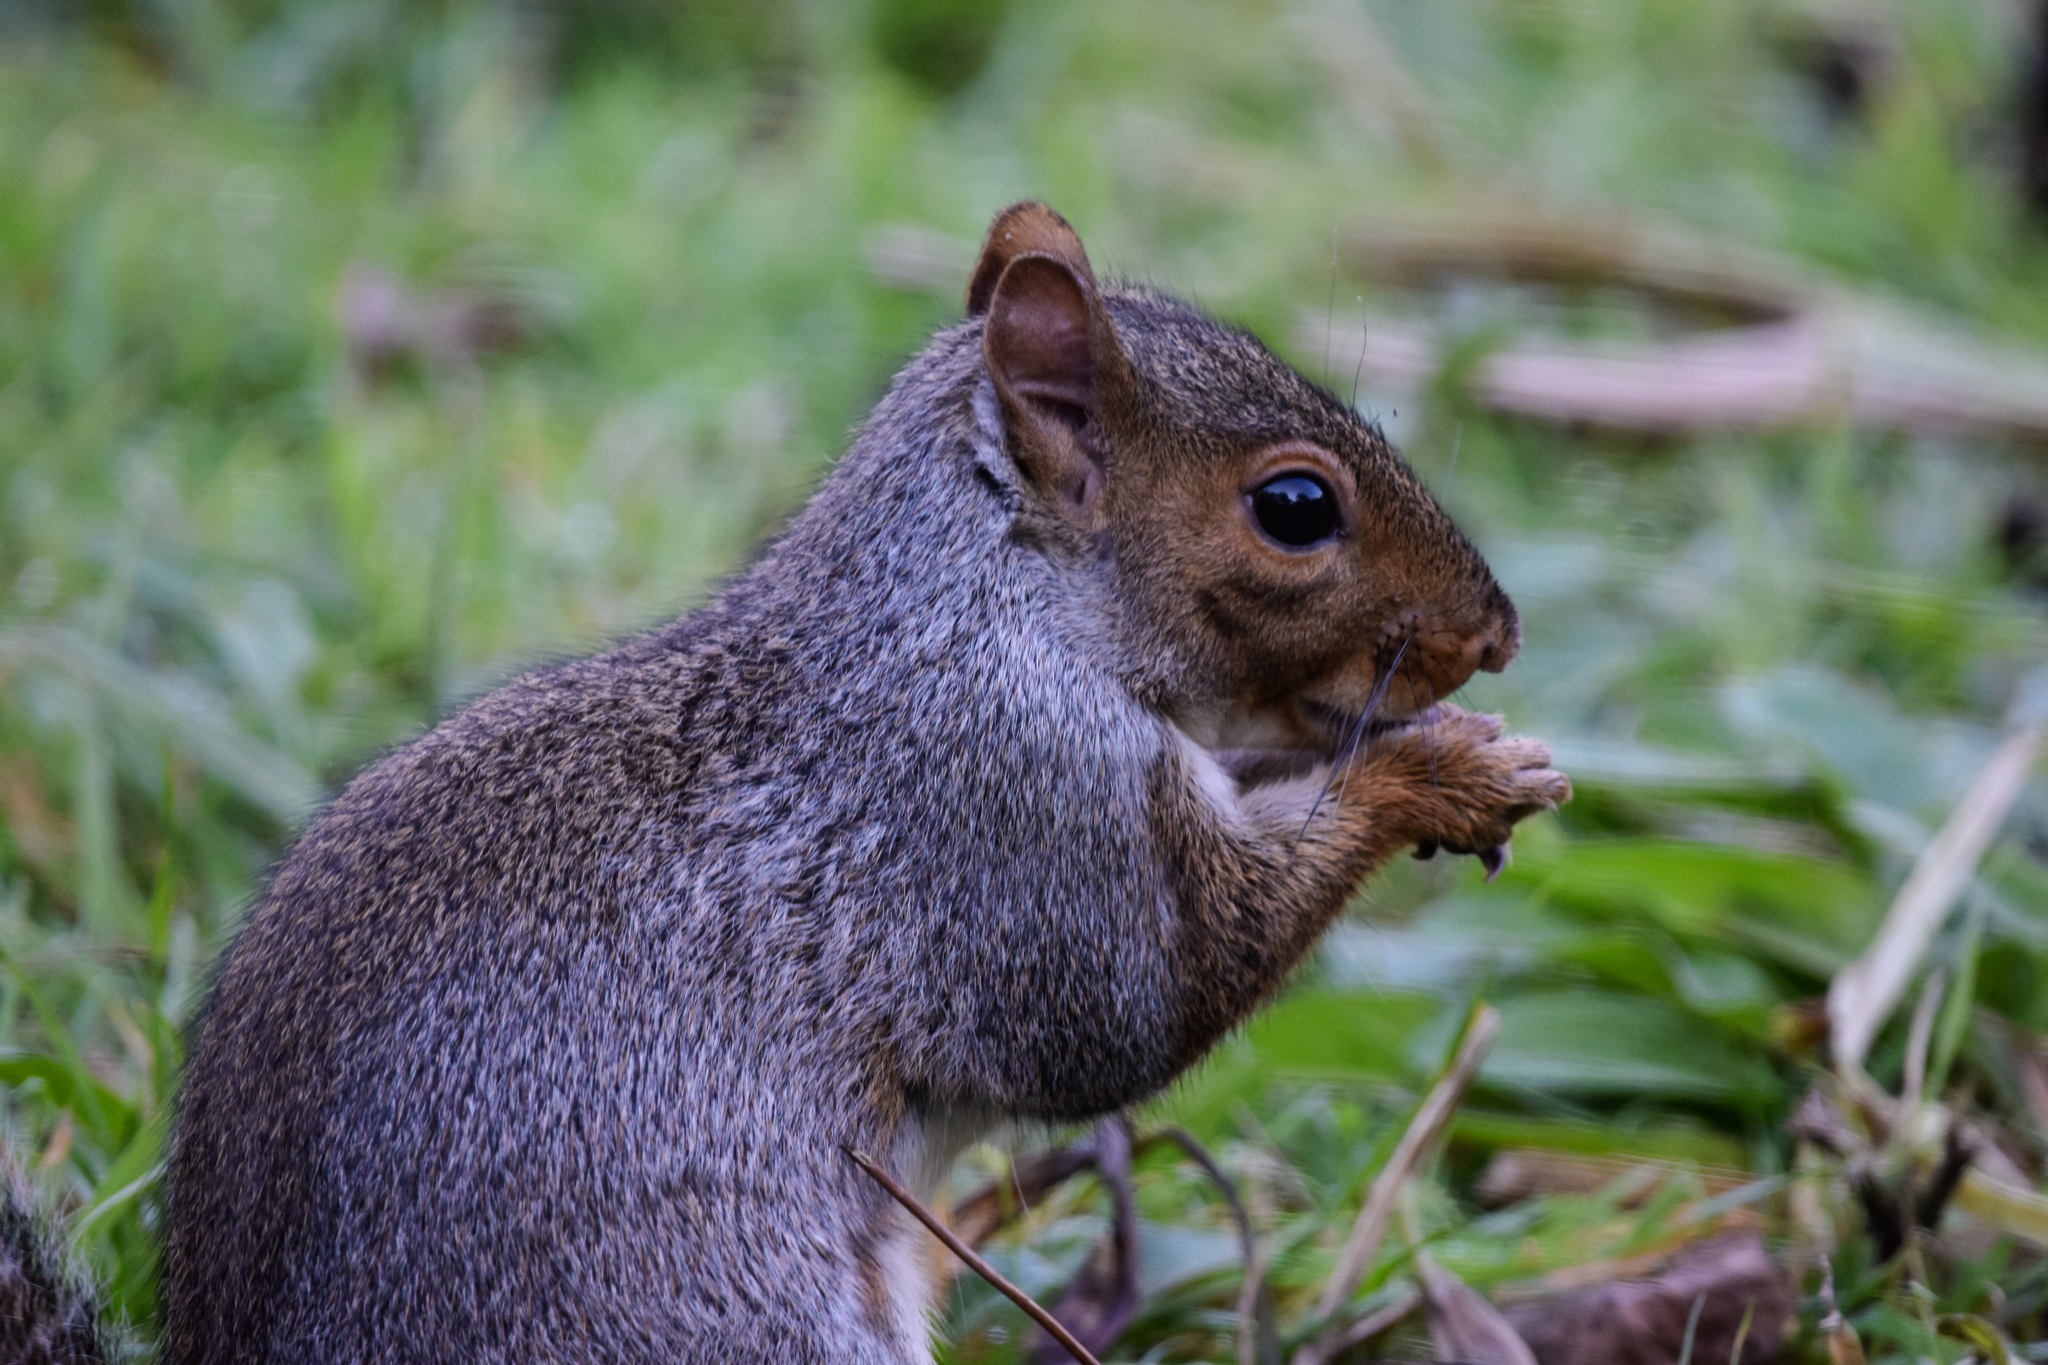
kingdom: Animalia
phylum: Chordata
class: Mammalia
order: Rodentia
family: Sciuridae
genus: Sciurus
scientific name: Sciurus carolinensis
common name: Eastern gray squirrel
